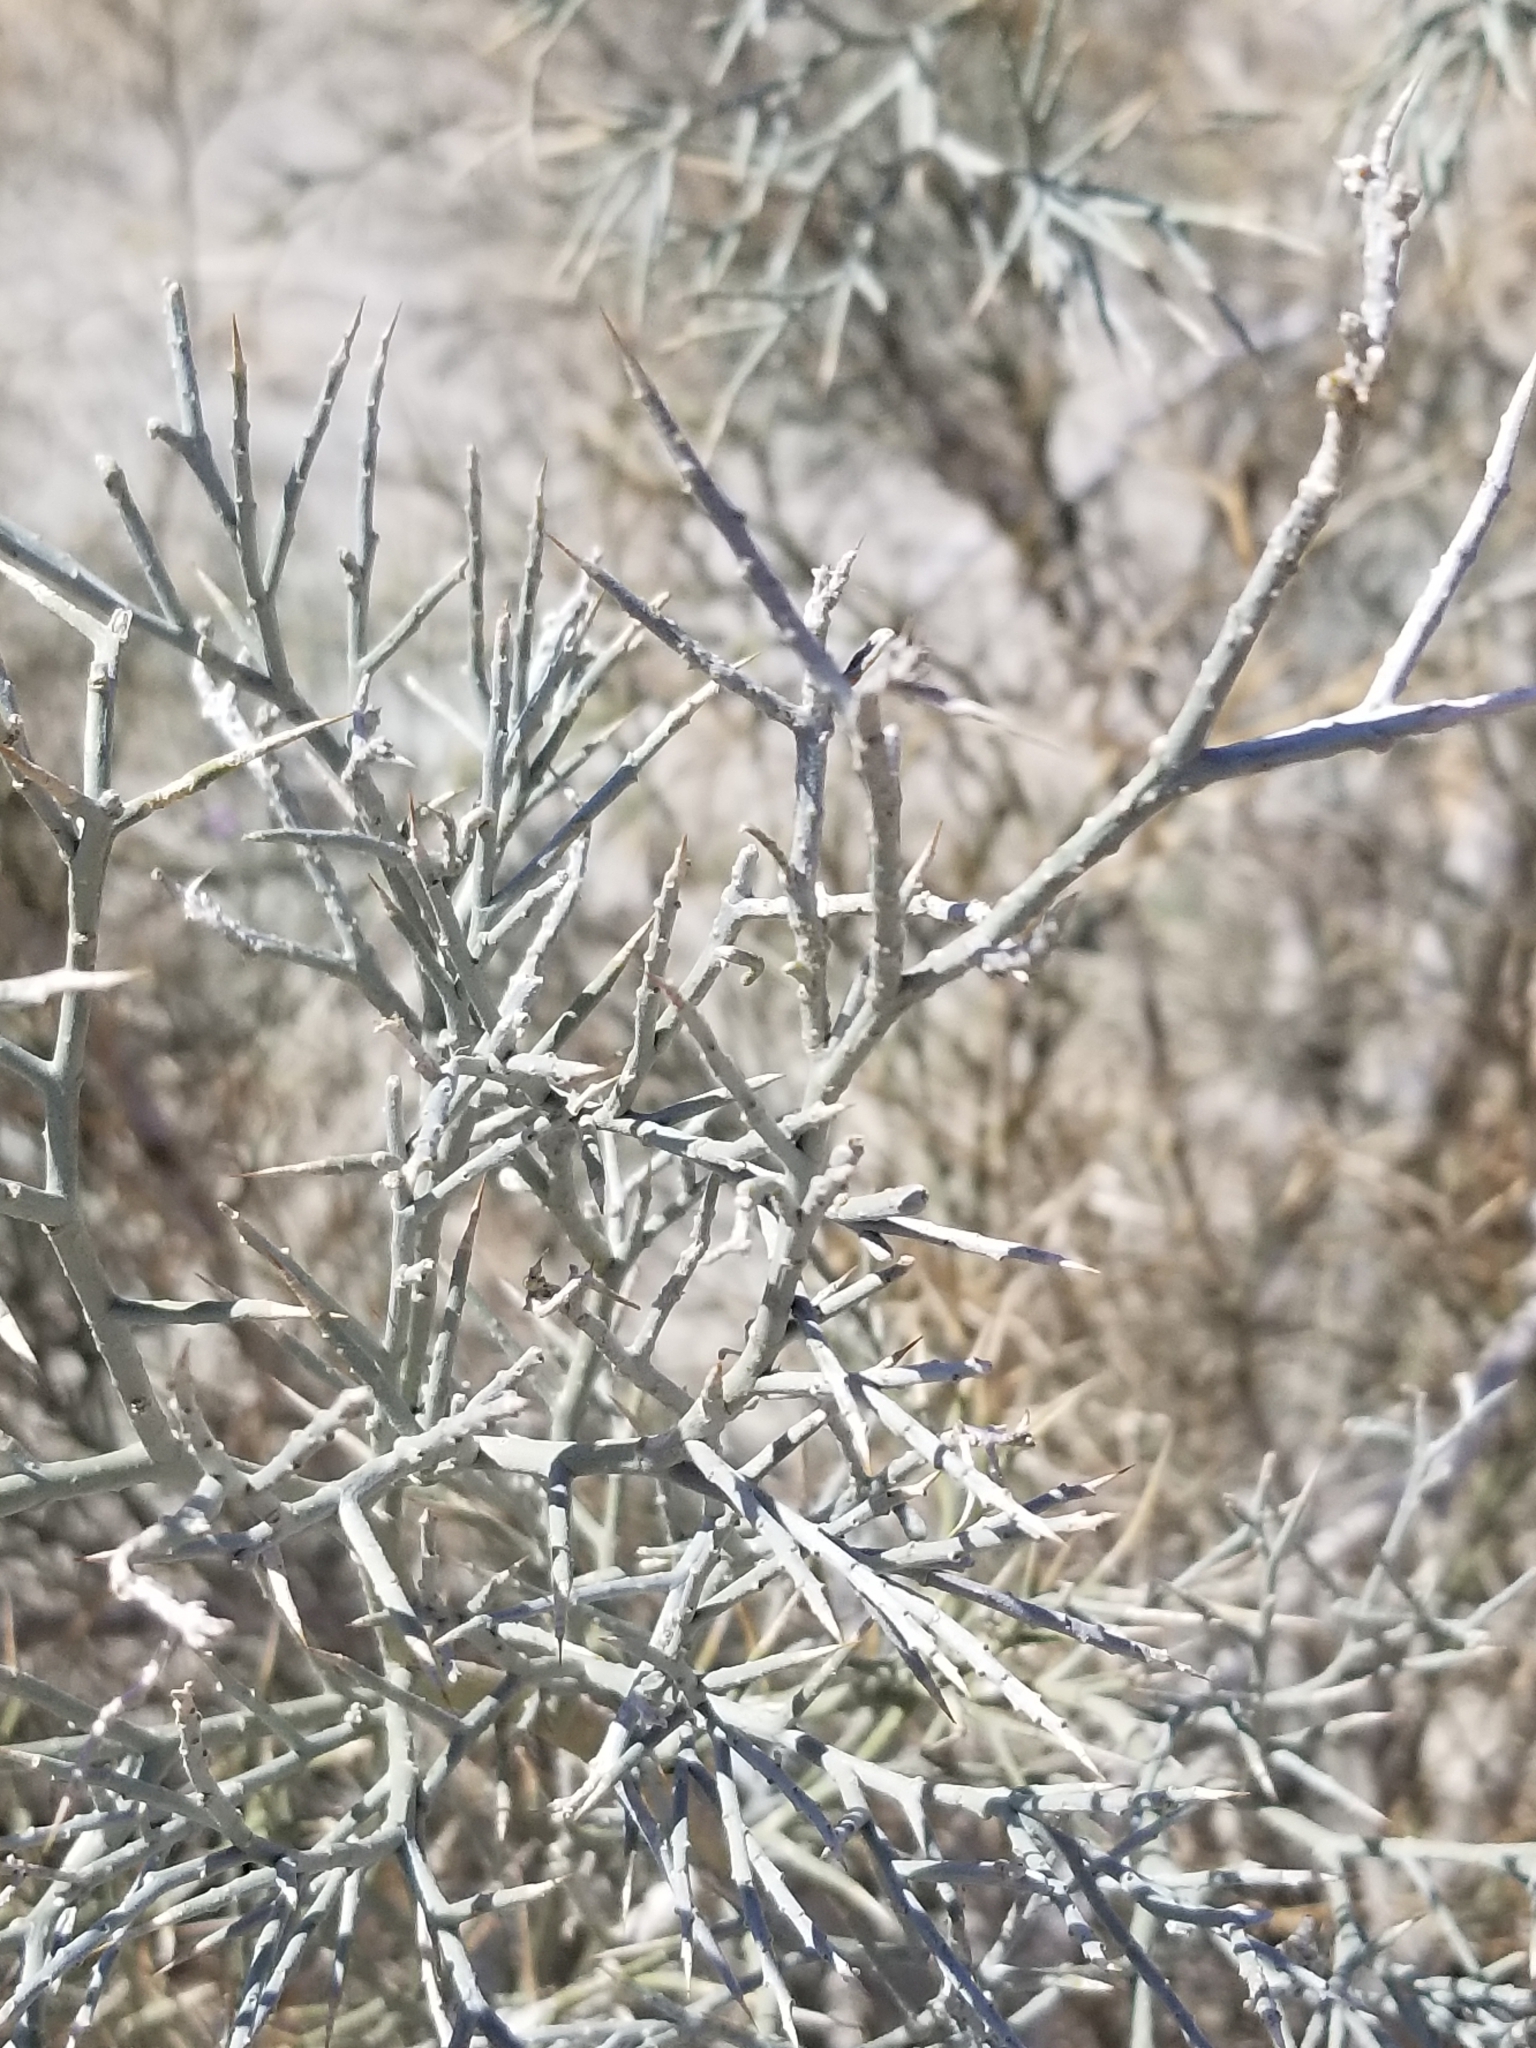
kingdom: Plantae
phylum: Tracheophyta
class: Magnoliopsida
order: Fabales
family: Fabaceae
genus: Psorothamnus
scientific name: Psorothamnus spinosus
